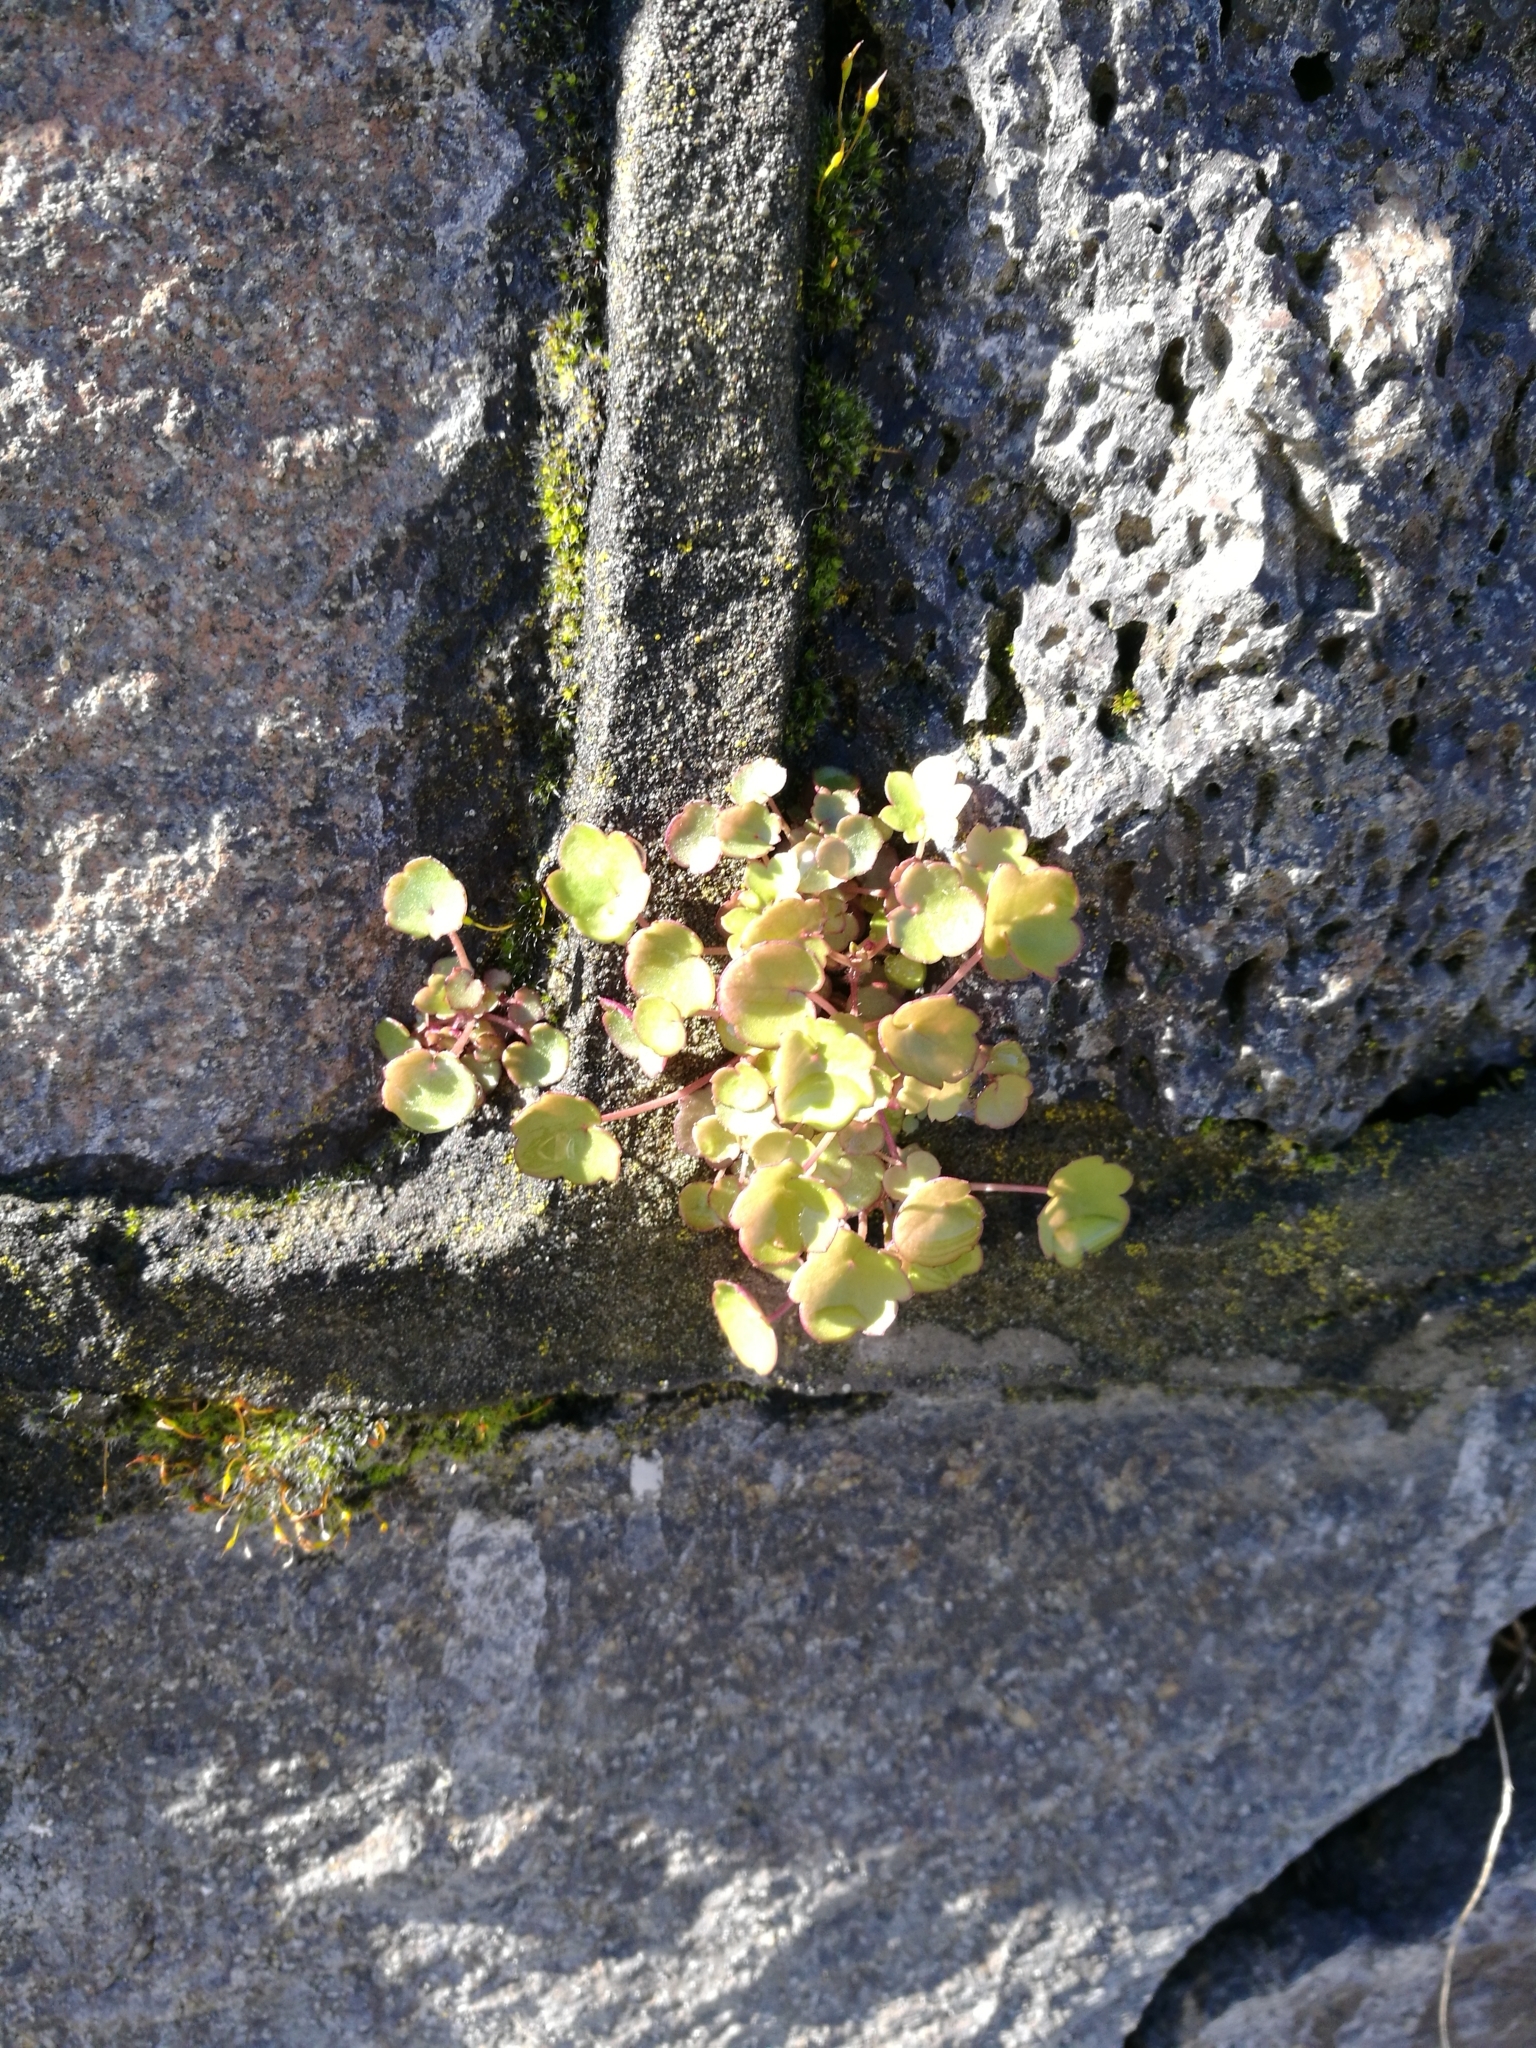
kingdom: Plantae
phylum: Tracheophyta
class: Magnoliopsida
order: Lamiales
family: Plantaginaceae
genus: Cymbalaria
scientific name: Cymbalaria muralis
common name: Ivy-leaved toadflax
